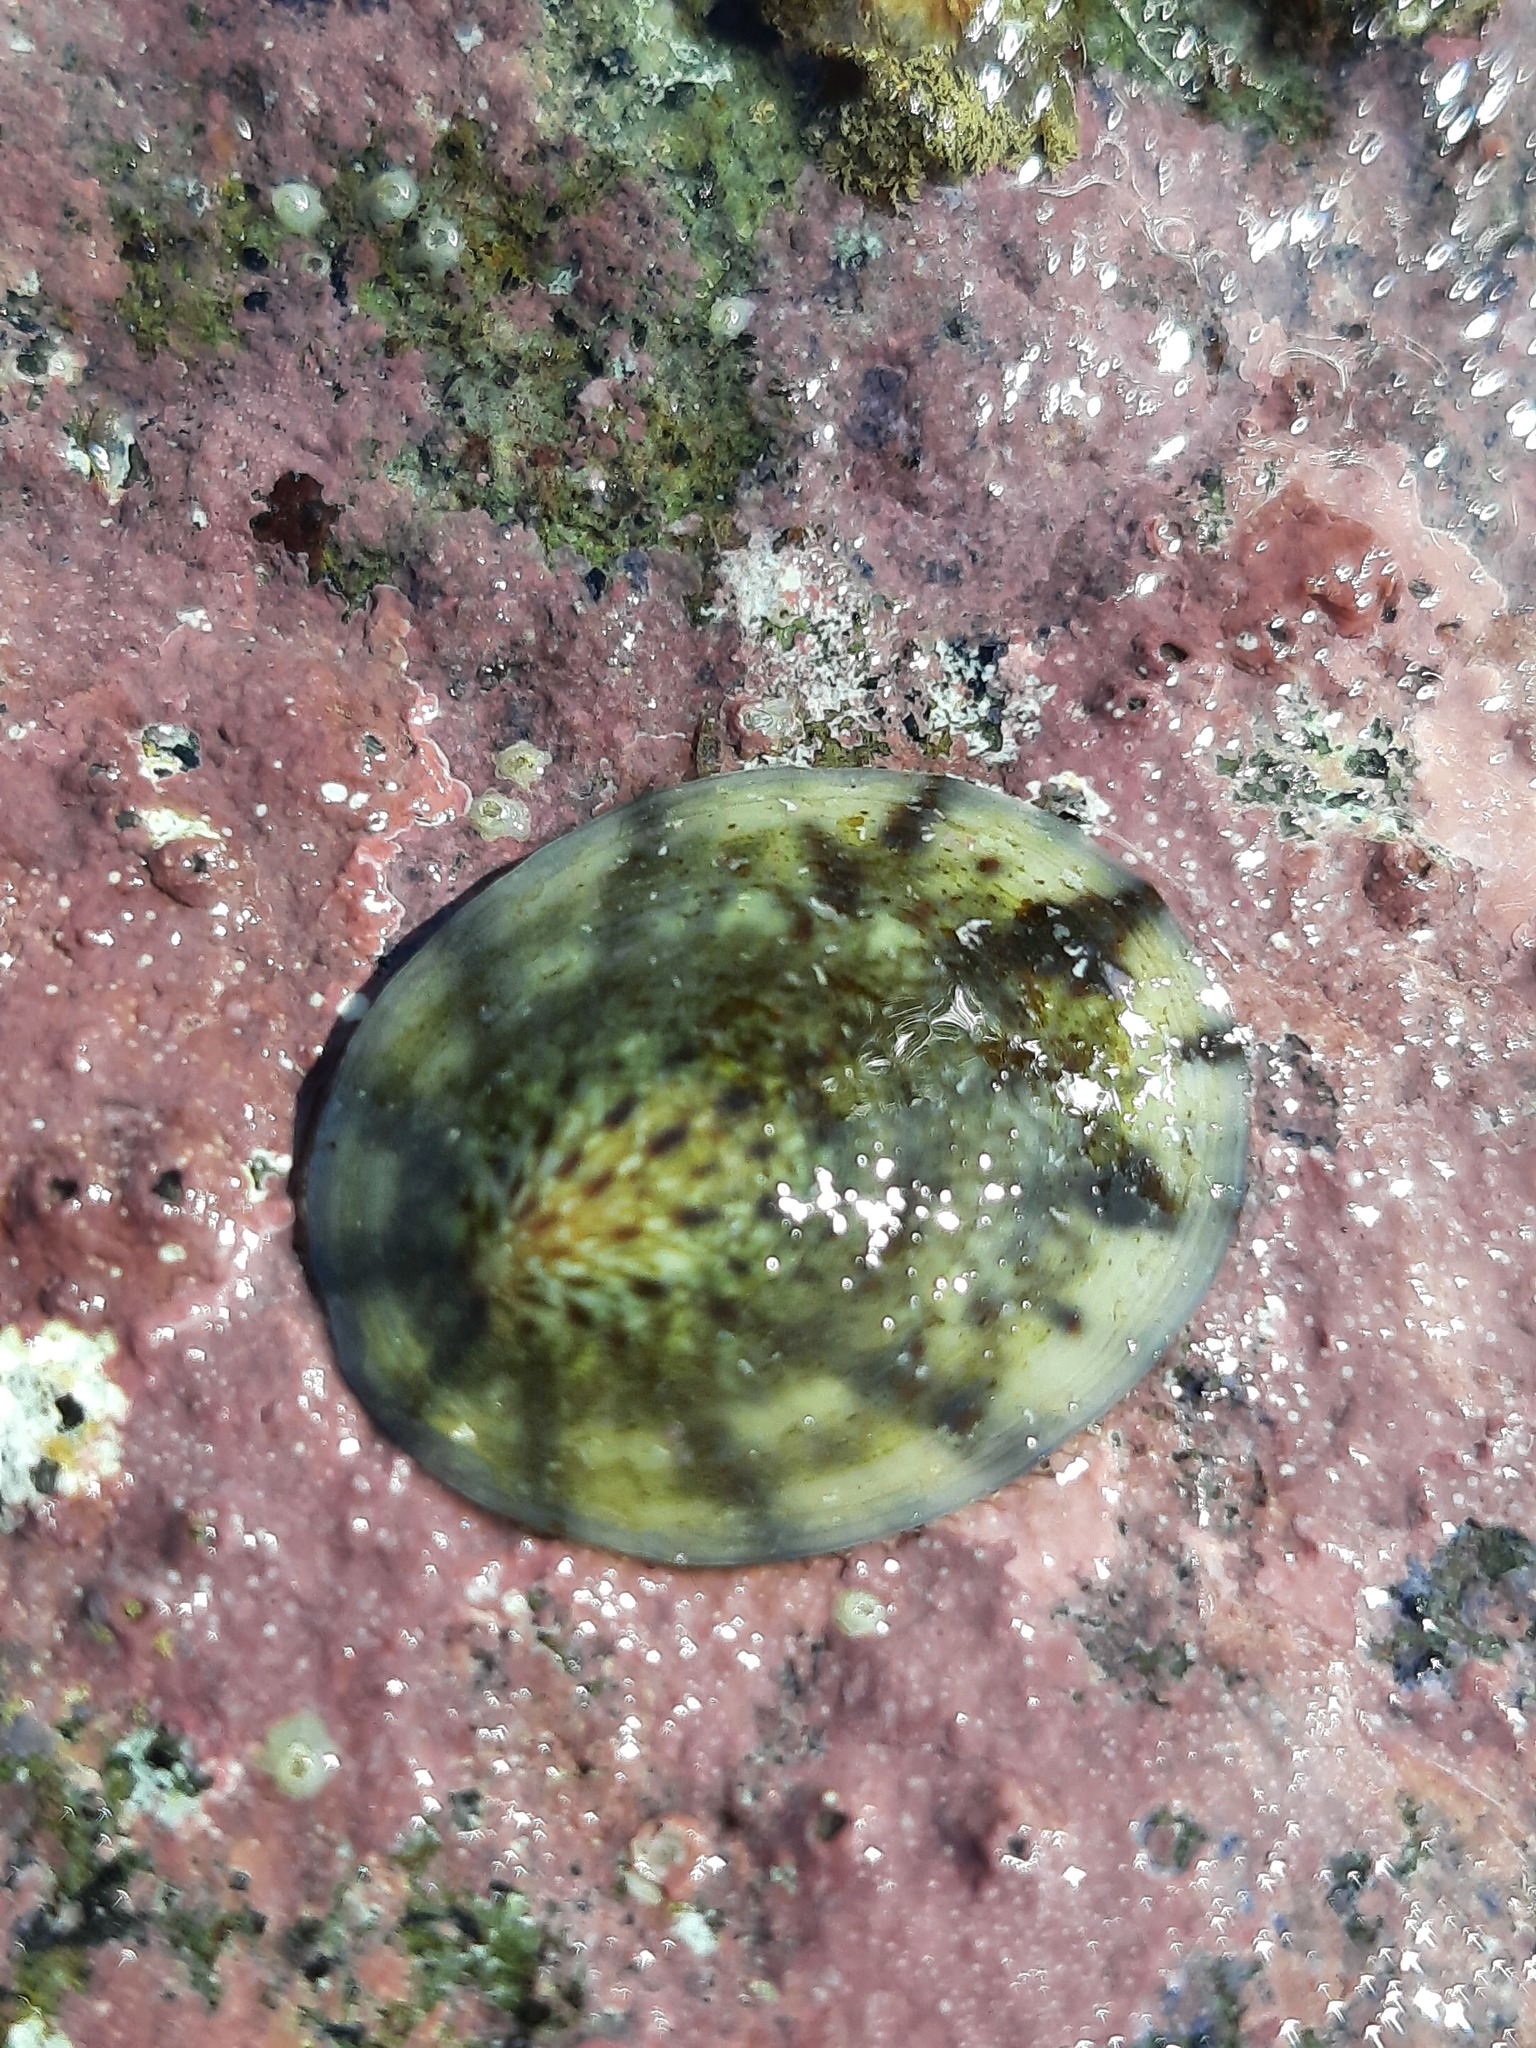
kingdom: Animalia
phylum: Mollusca
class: Gastropoda
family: Nacellidae
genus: Cellana
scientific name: Cellana radians
